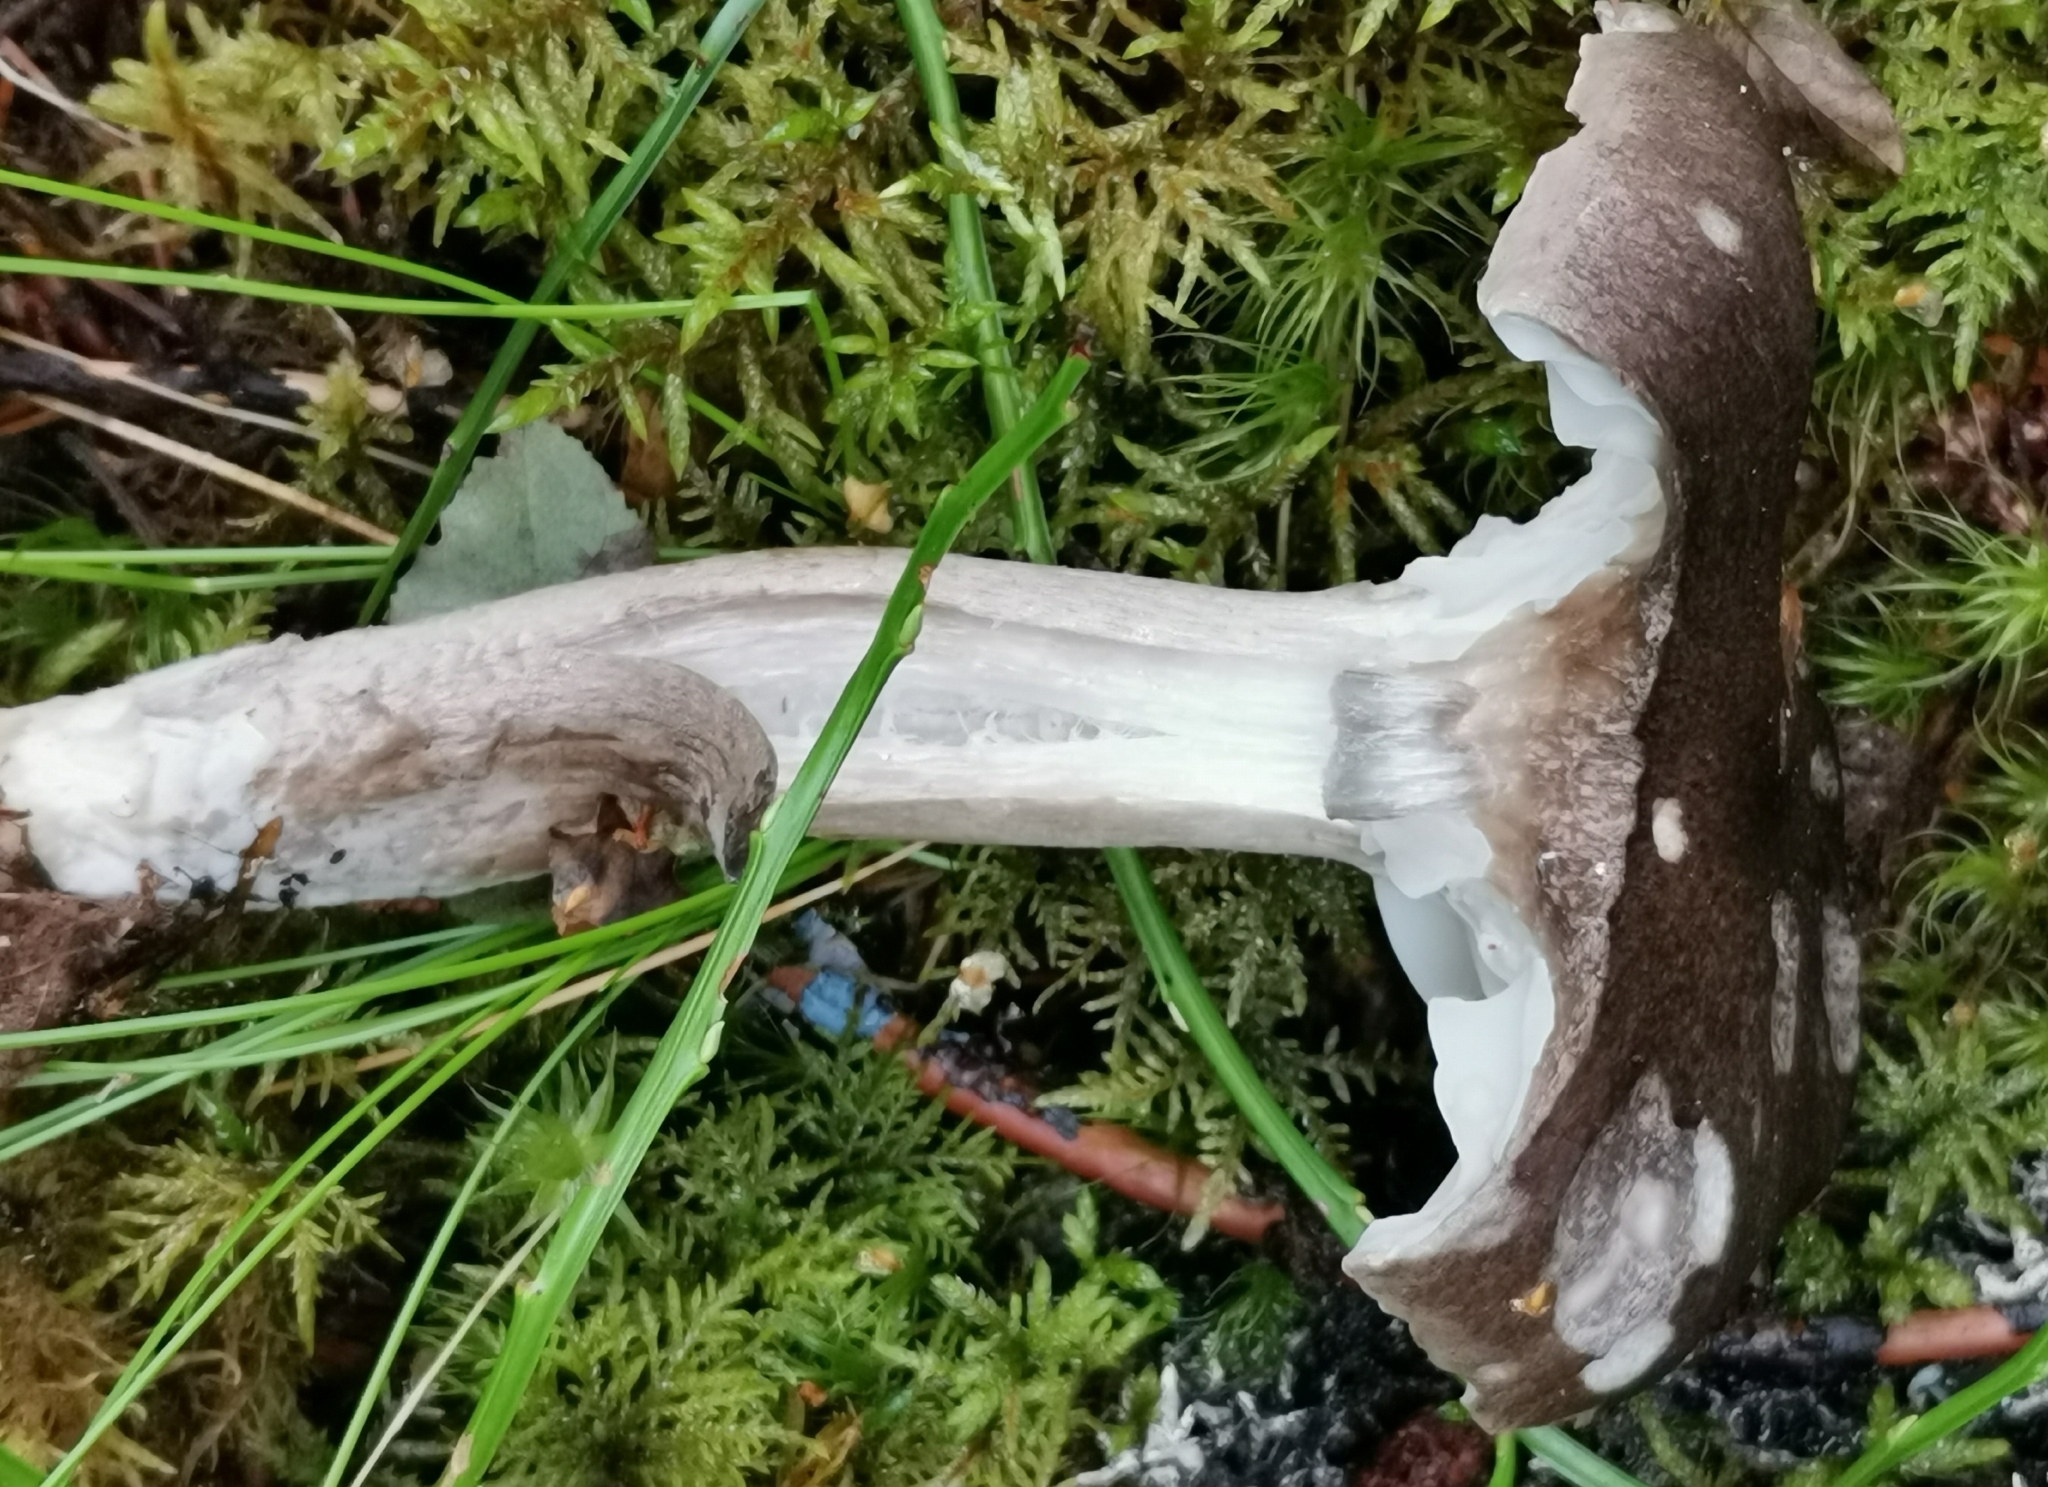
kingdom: Fungi
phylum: Basidiomycota
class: Agaricomycetes
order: Agaricales
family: Hygrophoraceae
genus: Hygrophorus
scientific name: Hygrophorus camarophyllus
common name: Arched woodwax
